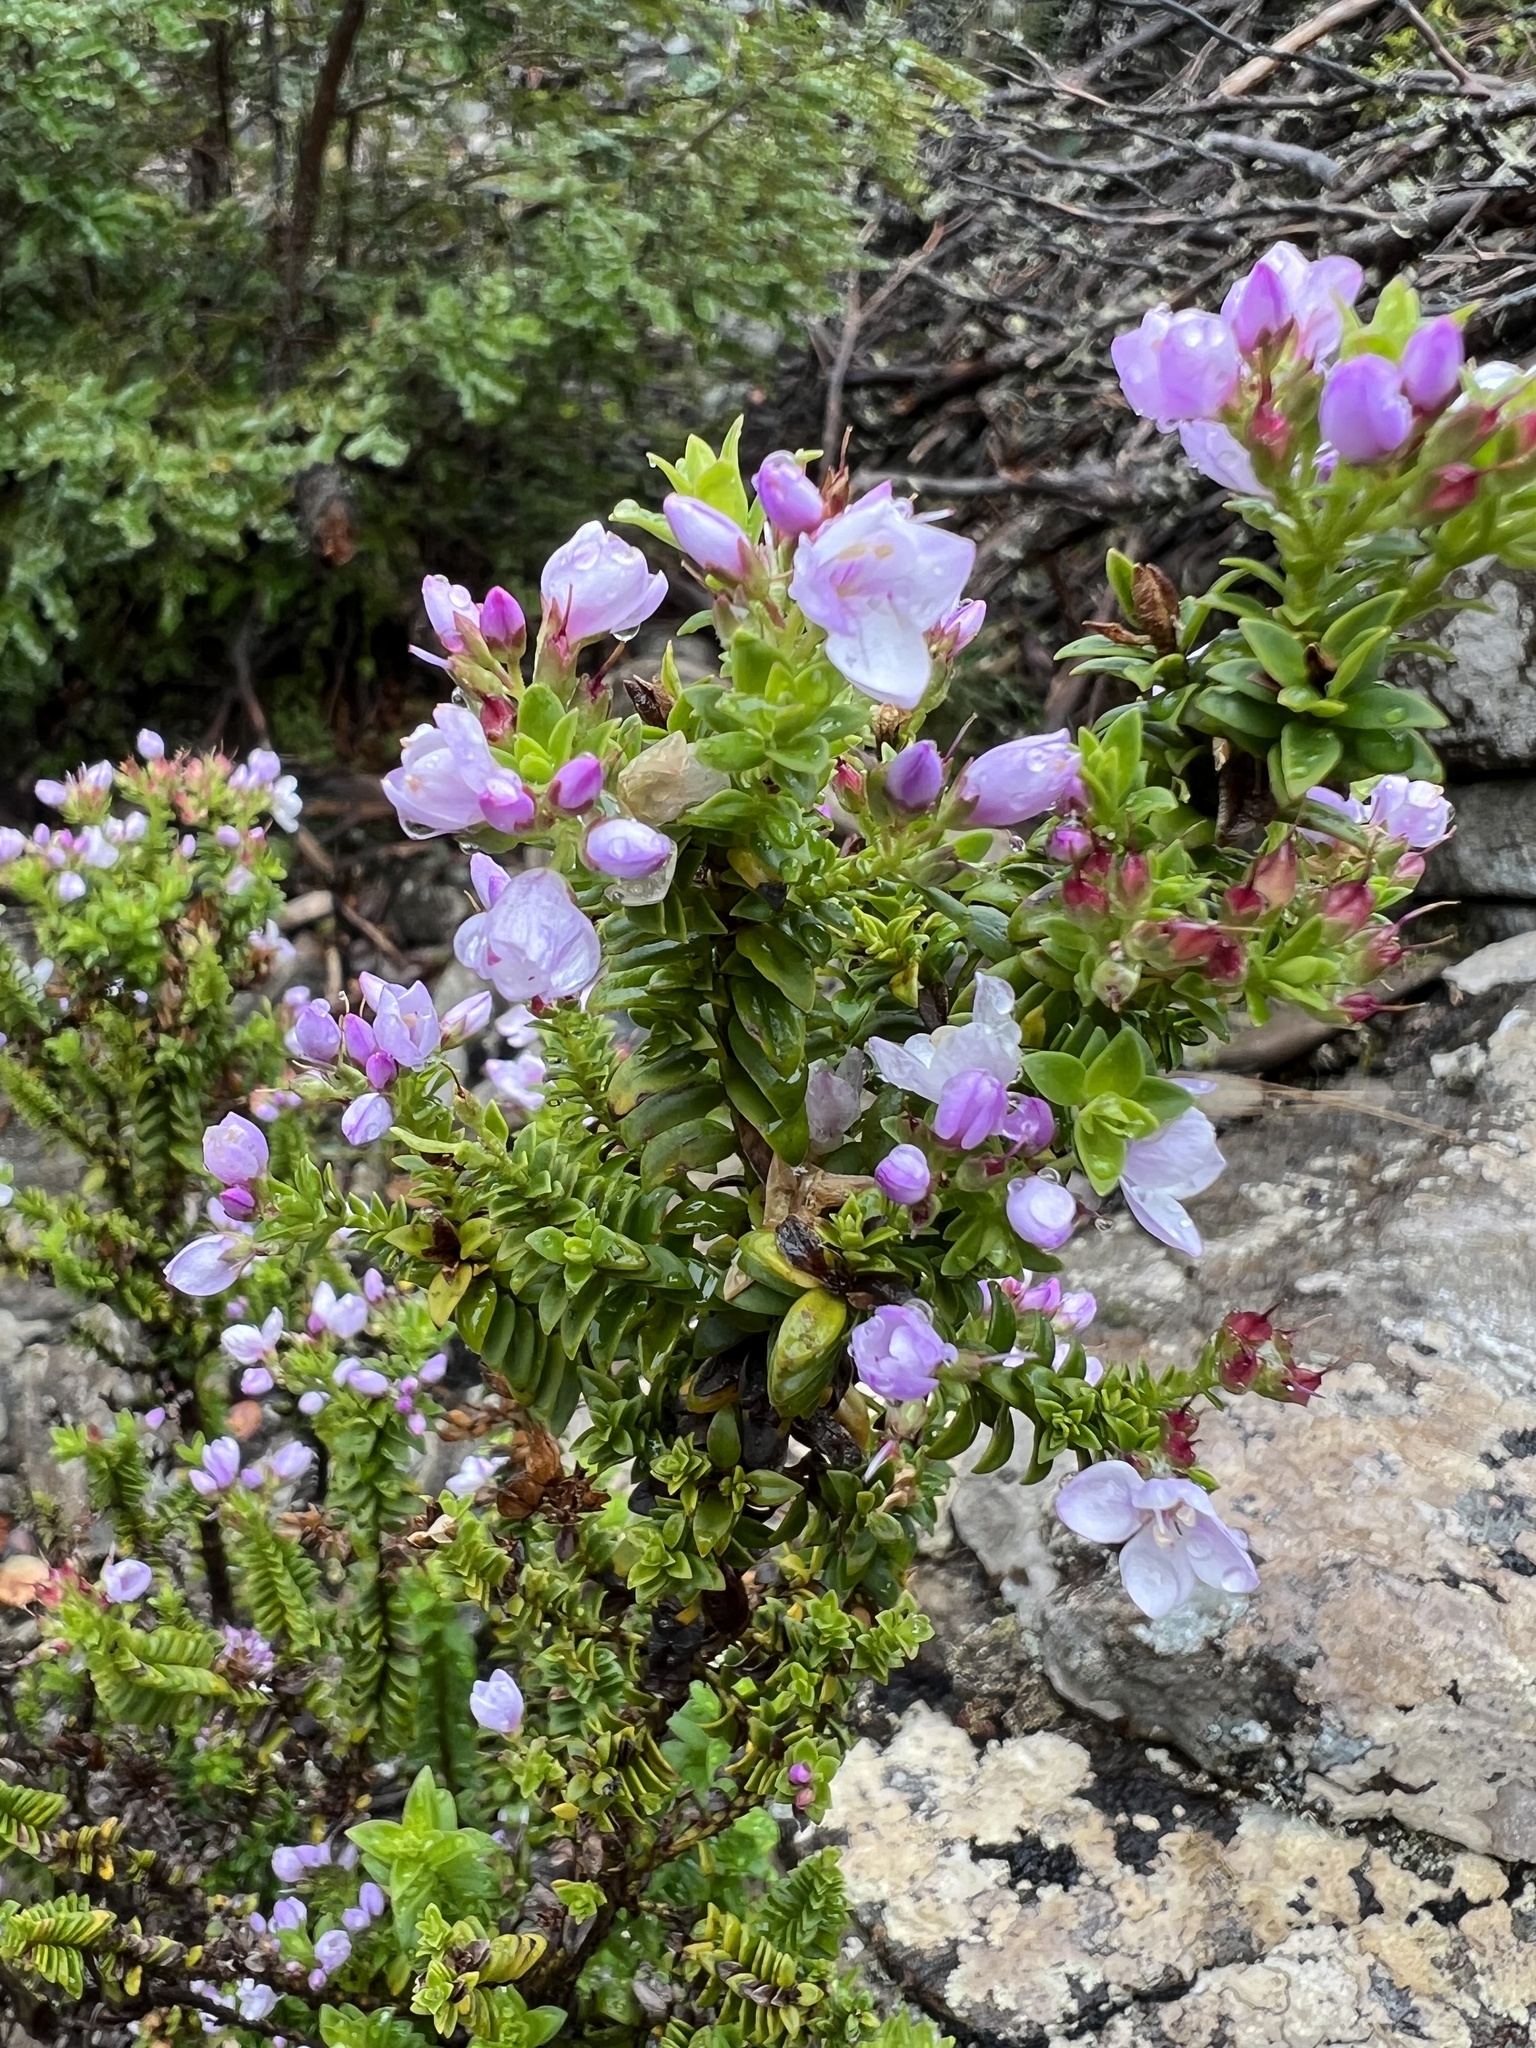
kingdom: Plantae
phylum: Tracheophyta
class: Magnoliopsida
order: Lamiales
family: Plantaginaceae
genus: Veronica
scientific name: Veronica formosa
